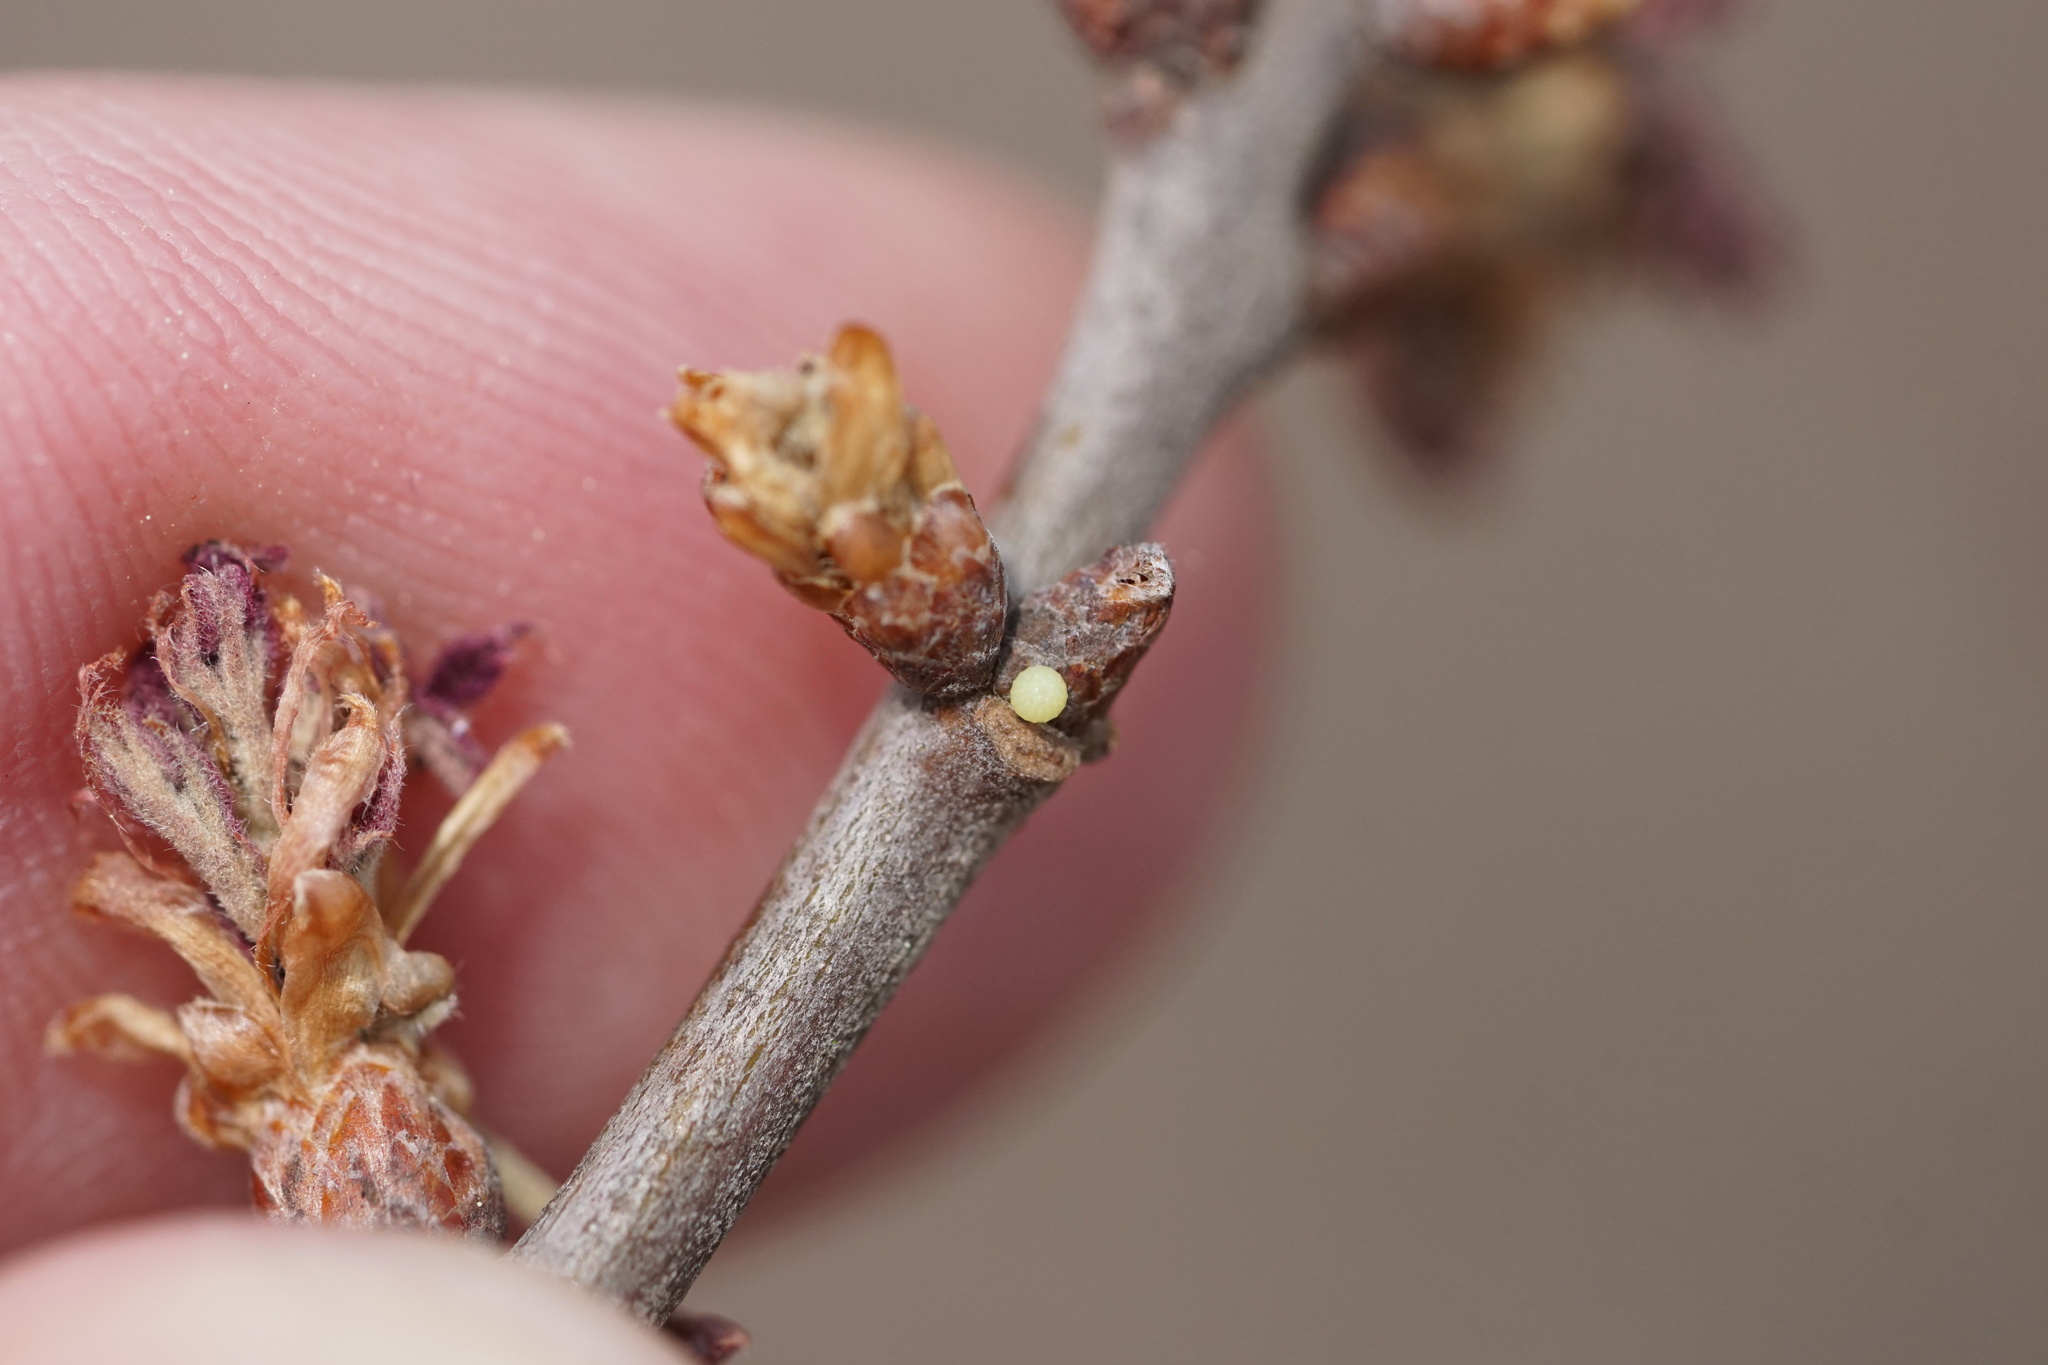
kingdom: Animalia
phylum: Arthropoda
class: Insecta
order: Lepidoptera
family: Hesperiidae
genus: Erynnis
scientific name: Erynnis brizo
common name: Sleepy duskywing
